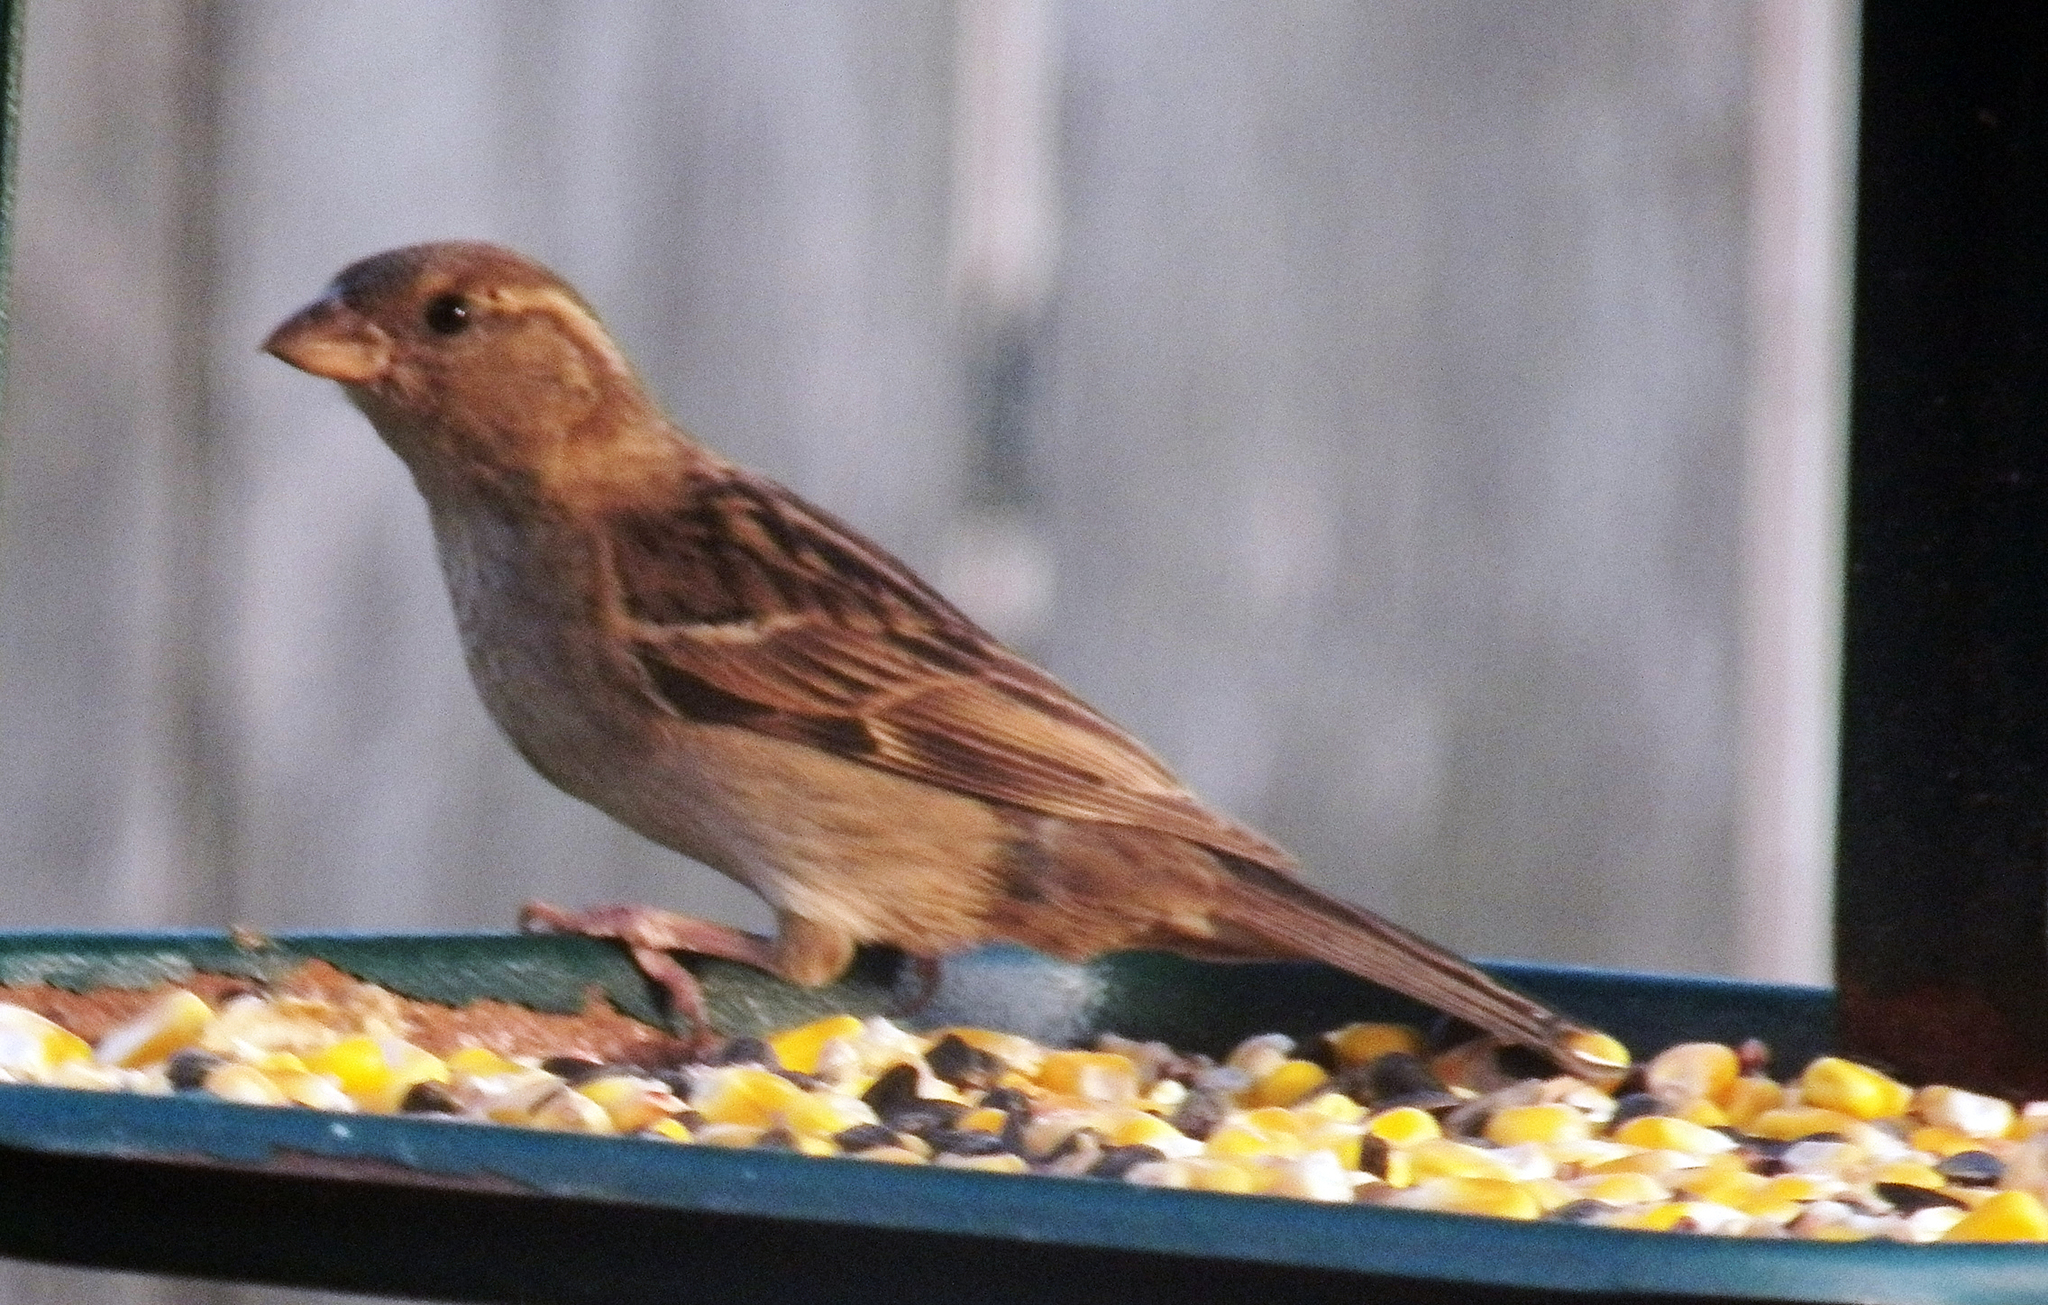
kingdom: Animalia
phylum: Chordata
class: Aves
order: Passeriformes
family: Passeridae
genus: Passer
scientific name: Passer domesticus
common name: House sparrow
